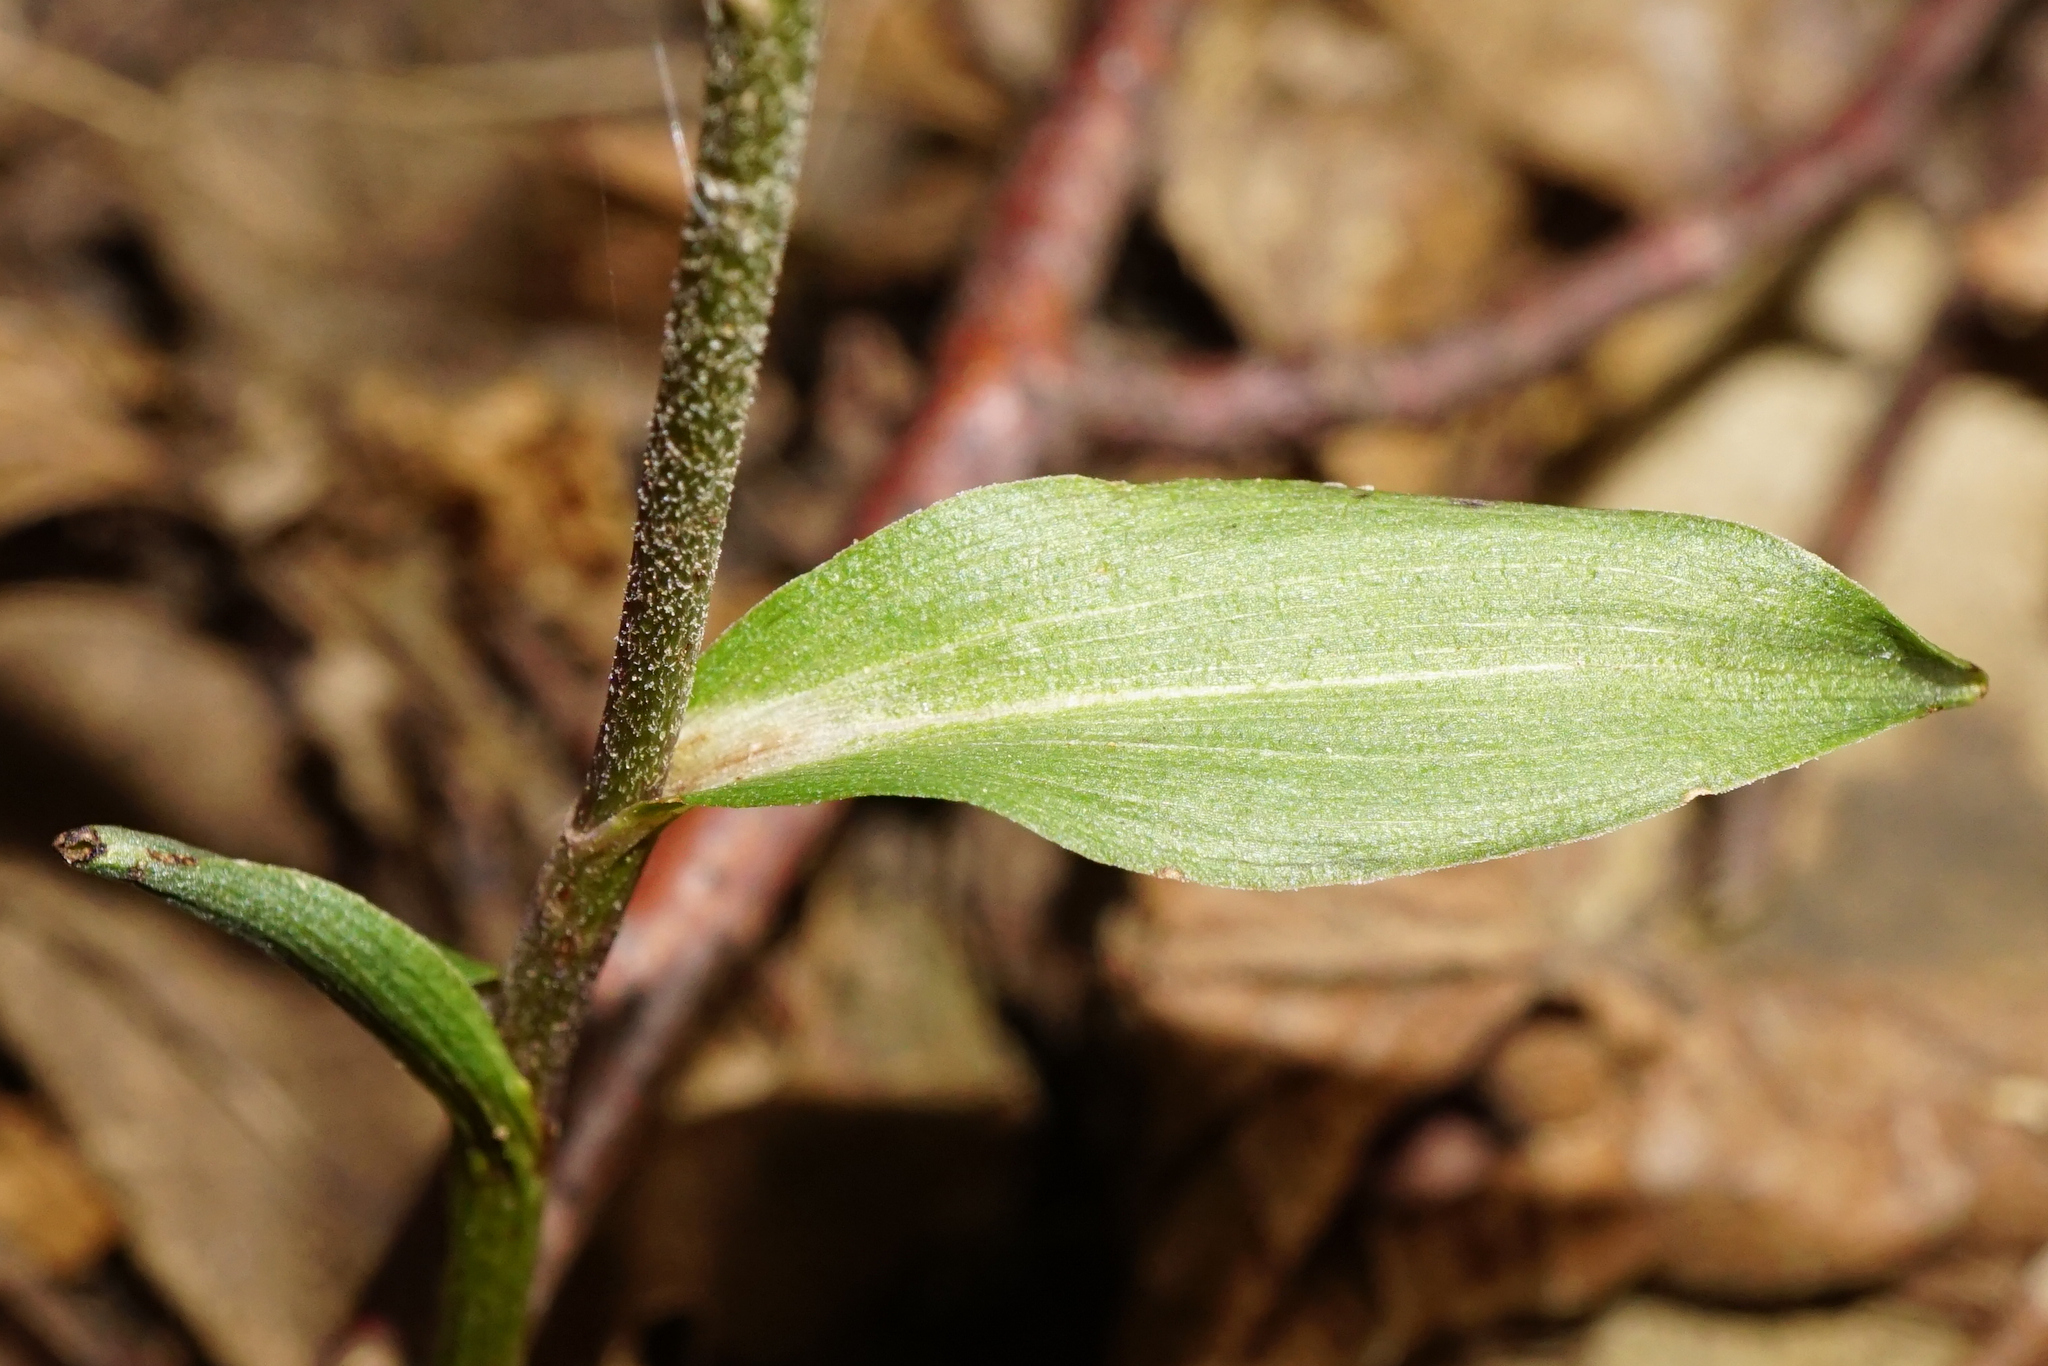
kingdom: Plantae
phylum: Tracheophyta
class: Liliopsida
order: Asparagales
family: Orchidaceae
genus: Epipactis
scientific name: Epipactis microphylla
